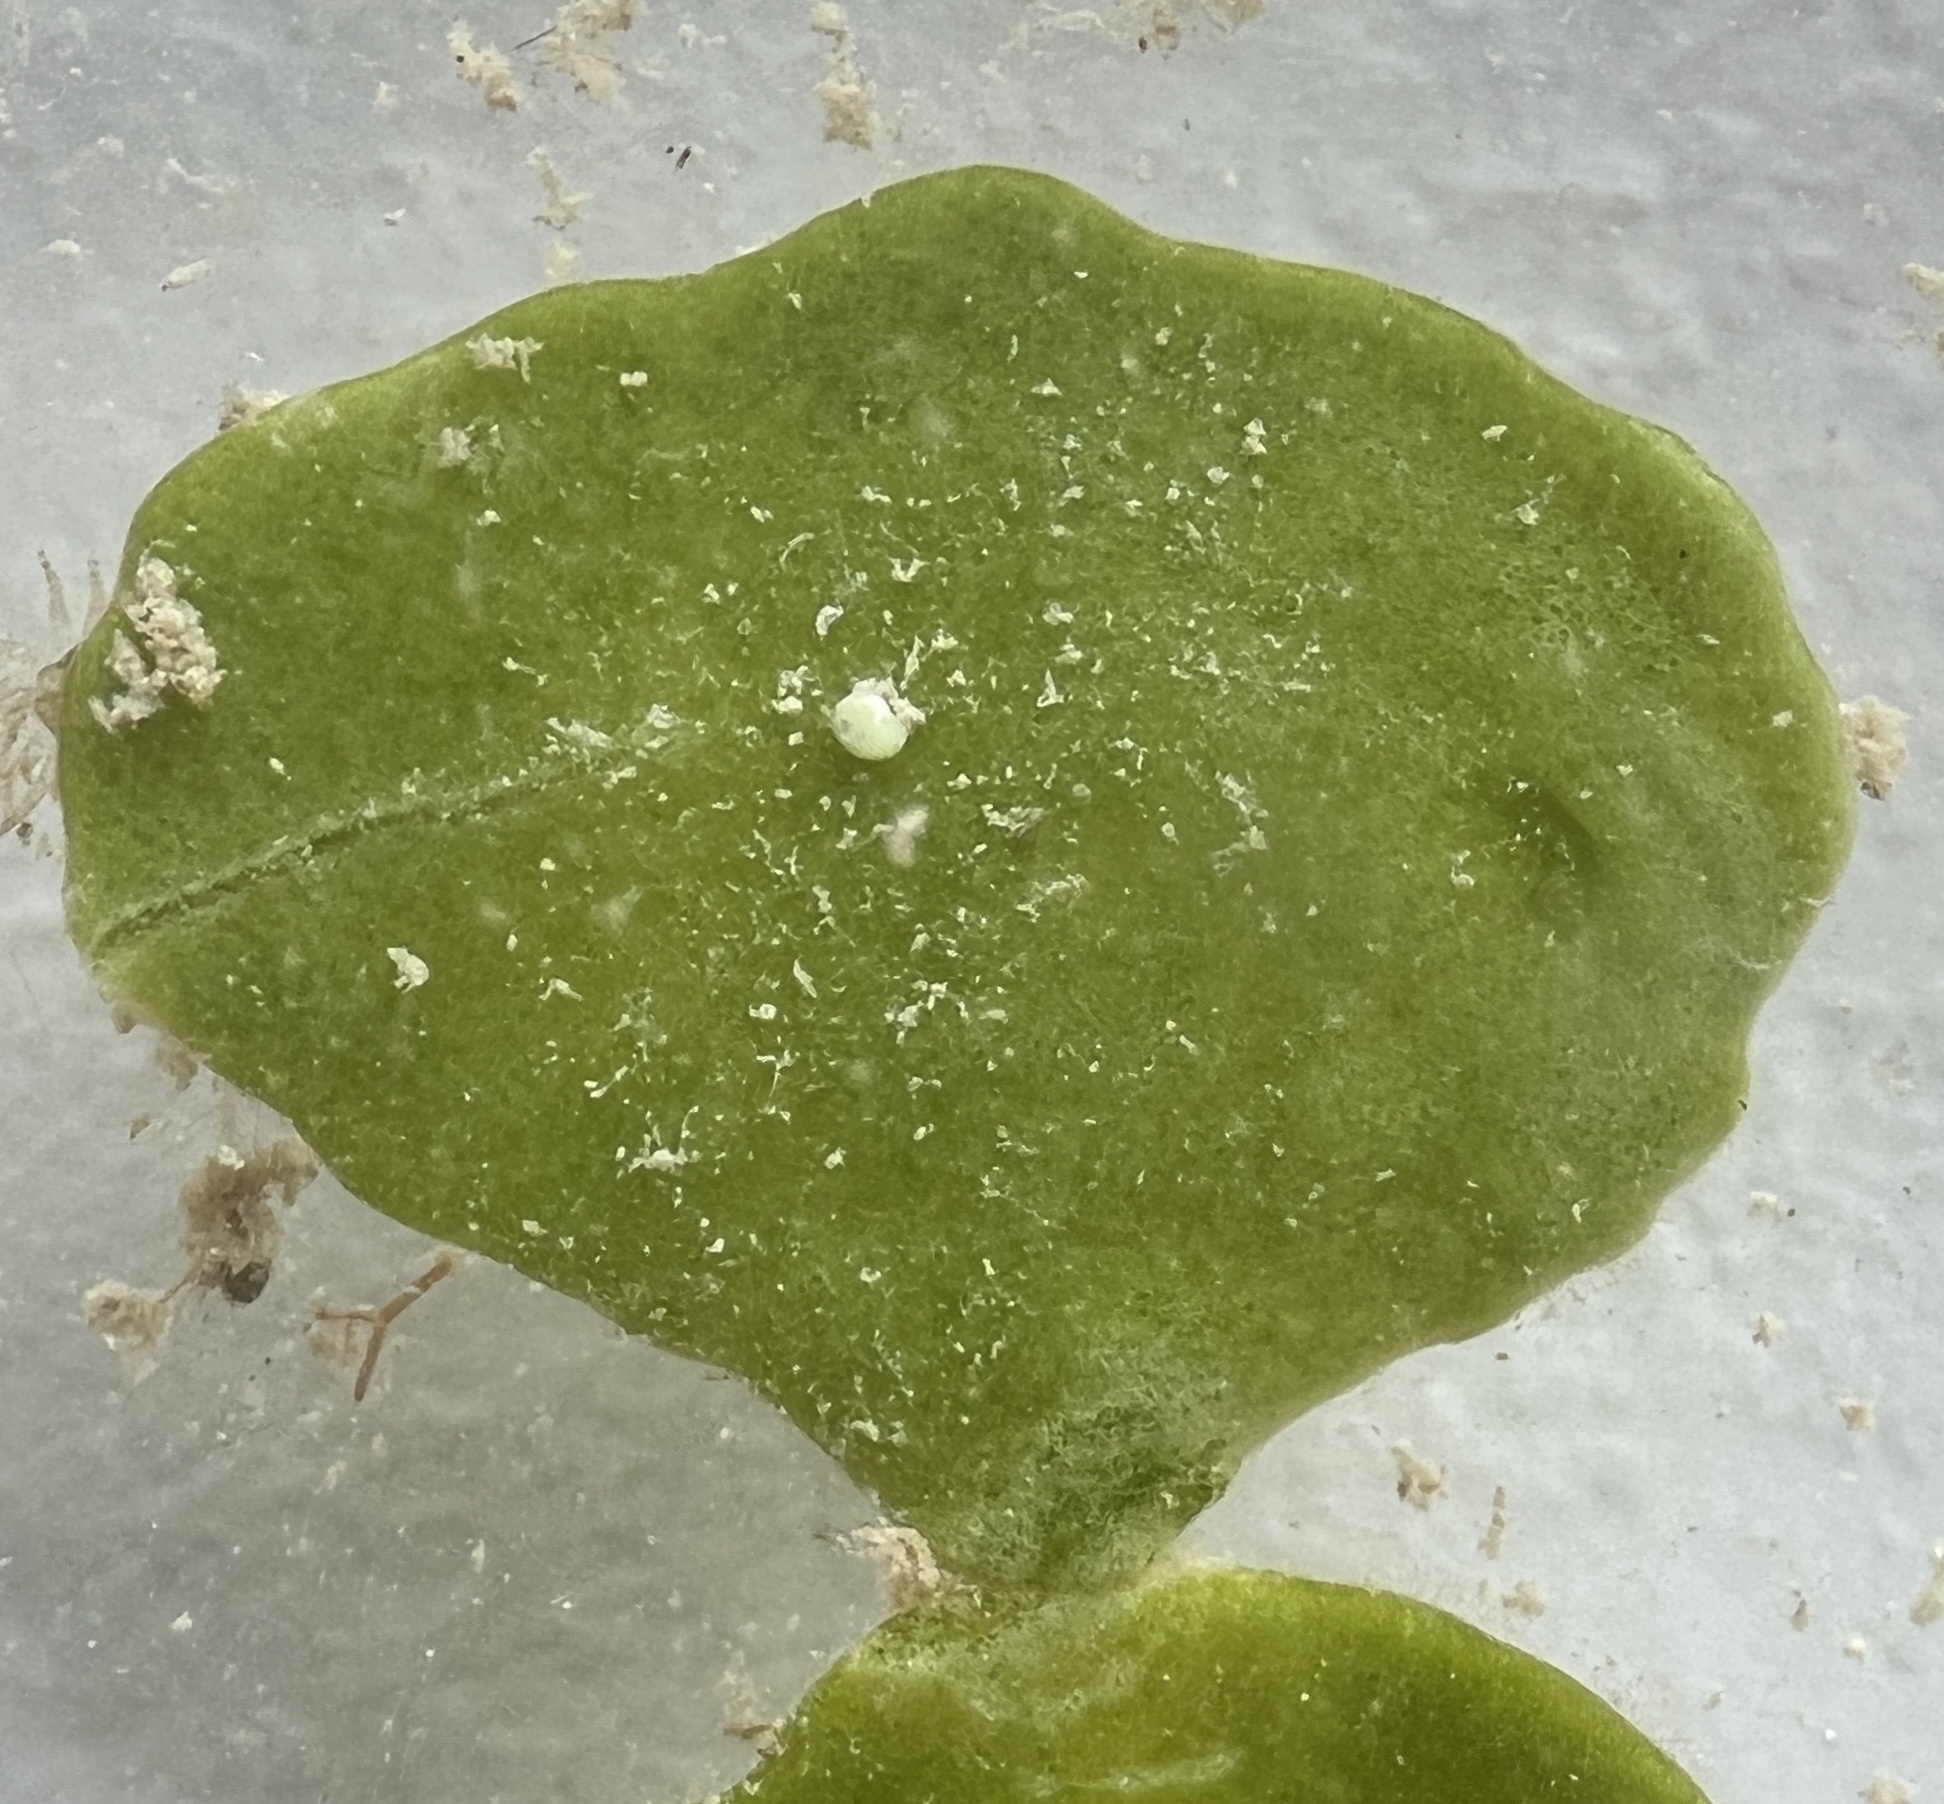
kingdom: Plantae
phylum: Chlorophyta
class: Ulvophyceae
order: Bryopsidales
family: Halimedaceae
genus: Halimeda
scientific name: Halimeda tuna
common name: Stalked lettuce leaf algae
